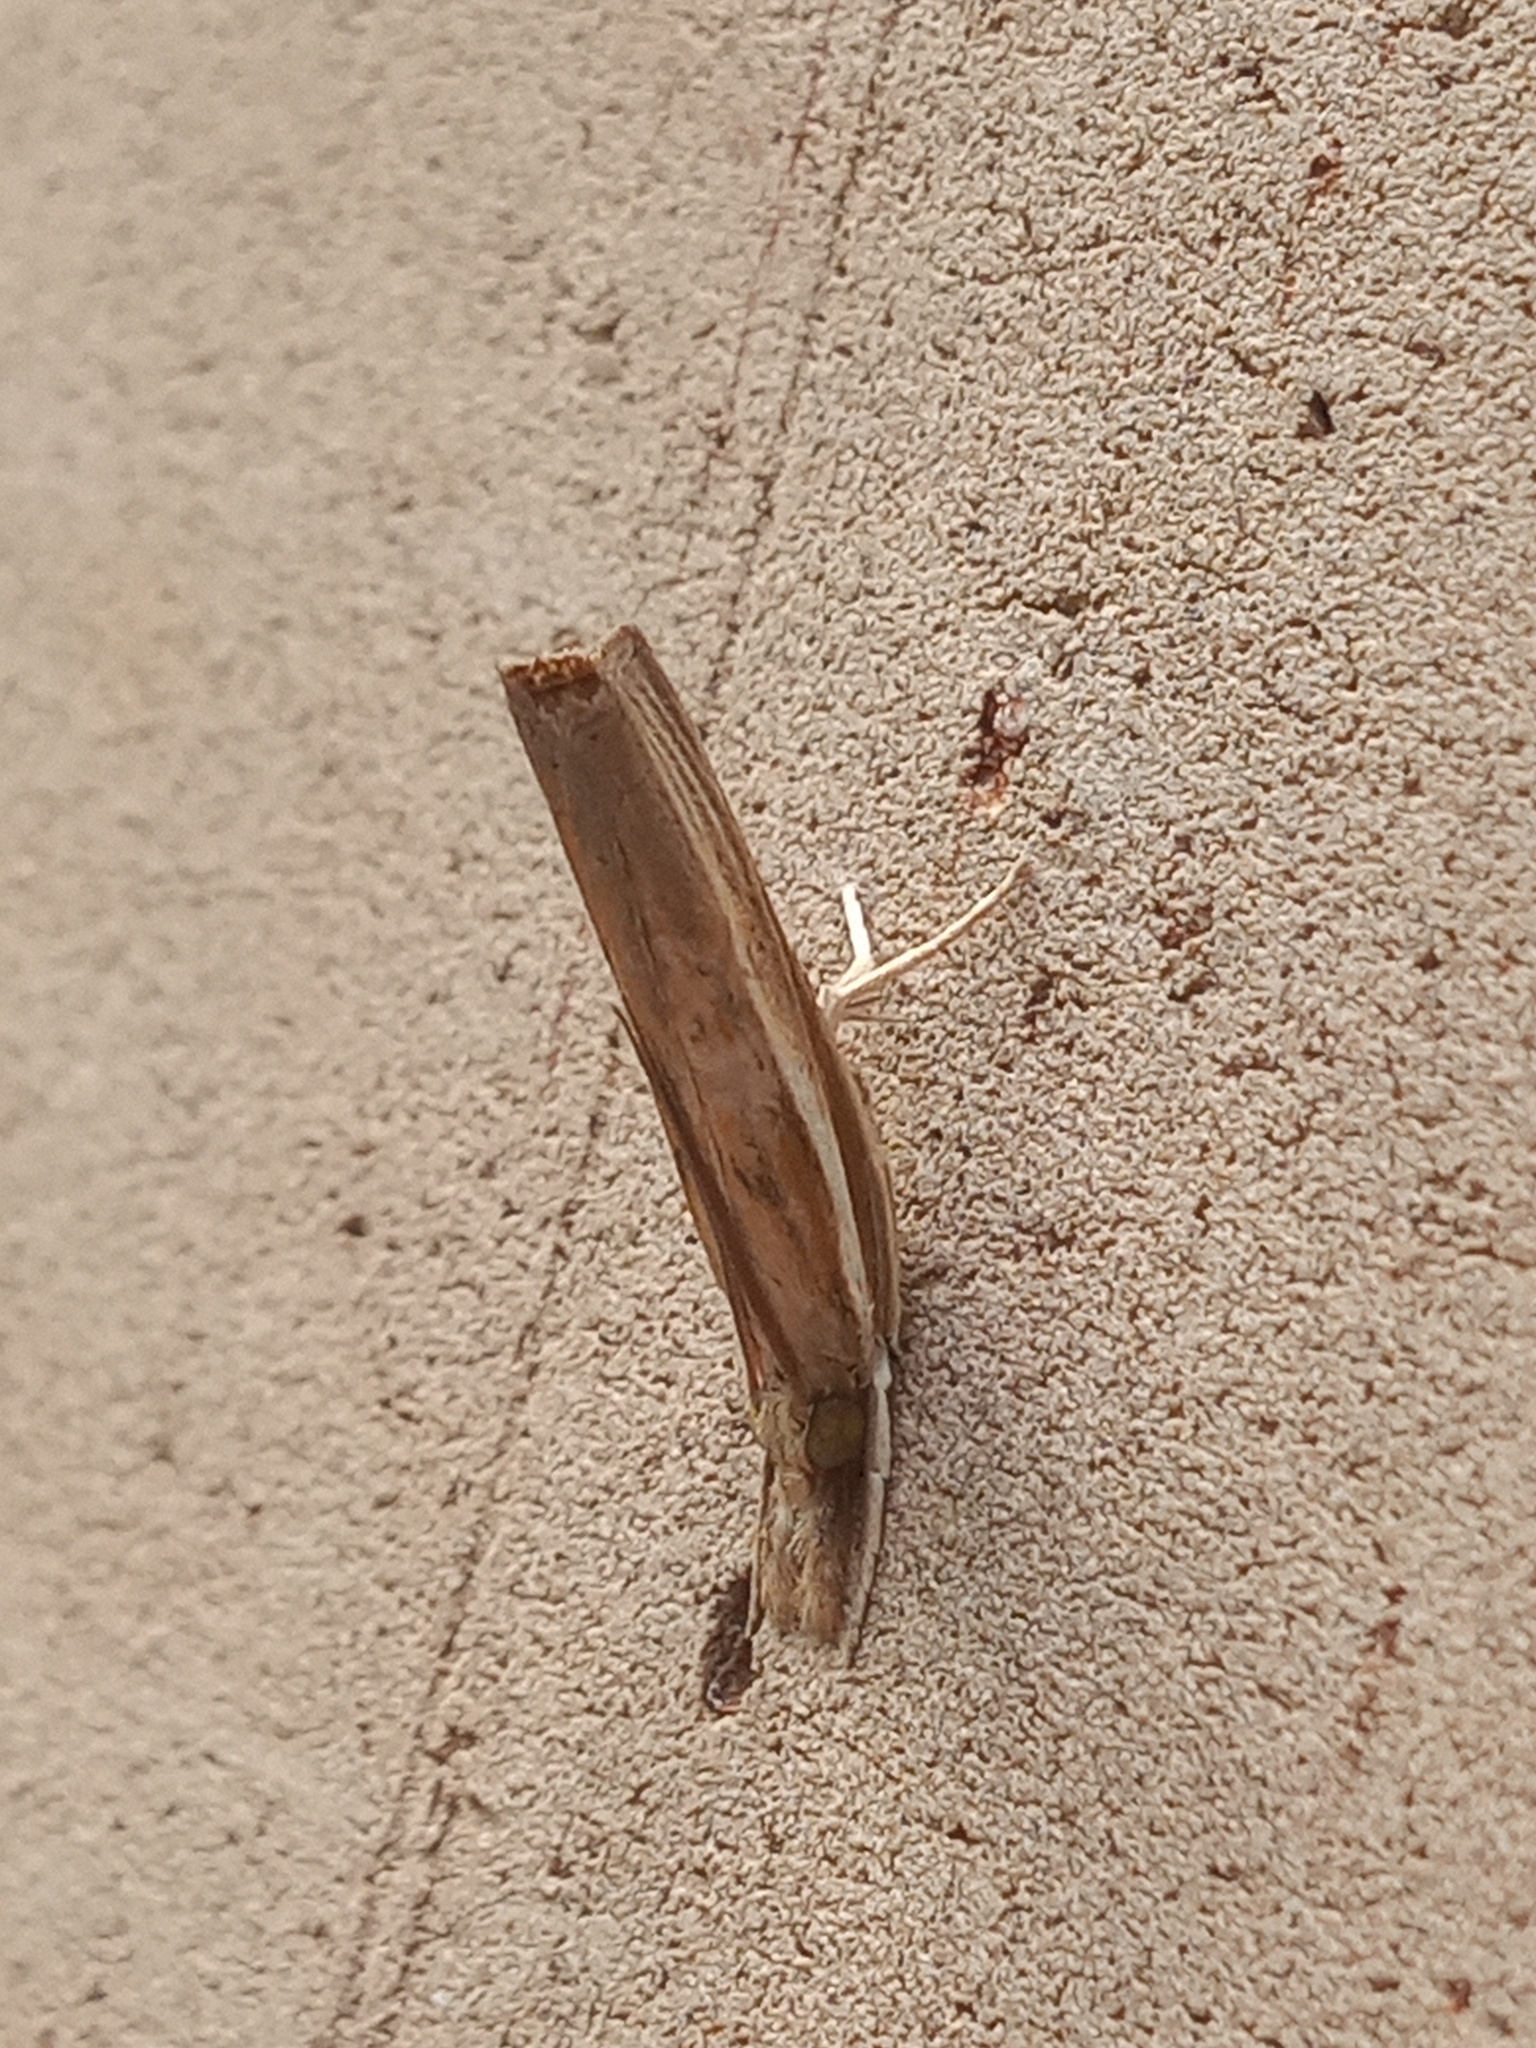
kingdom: Animalia
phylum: Arthropoda
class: Insecta
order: Lepidoptera
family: Crambidae
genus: Fissicrambus
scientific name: Fissicrambus fissiradiellus
